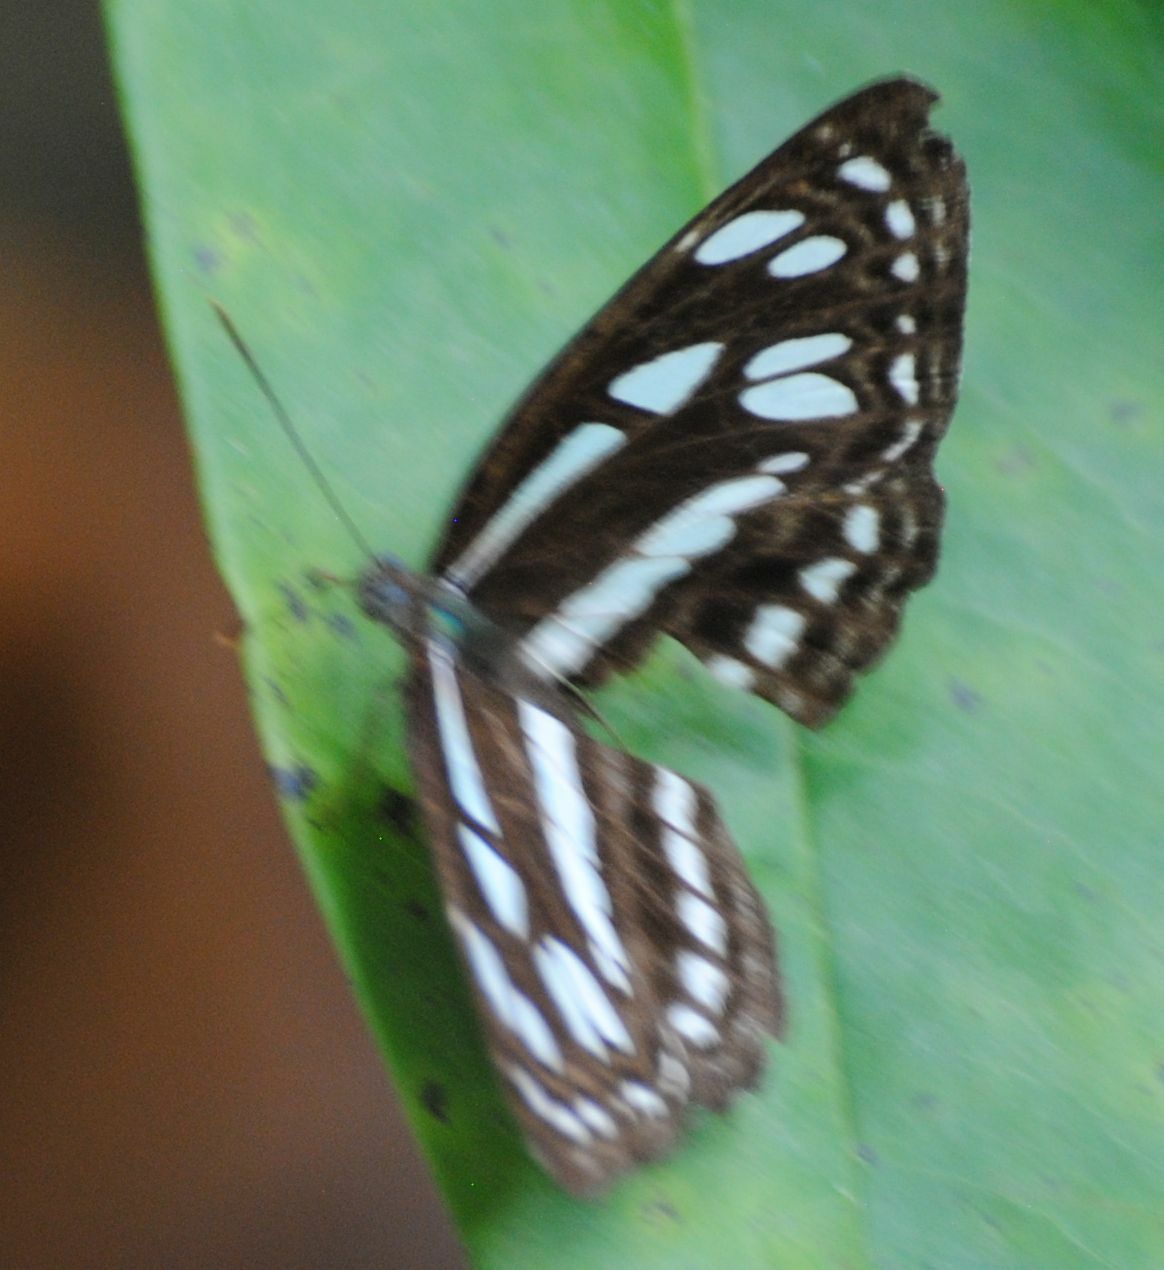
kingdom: Animalia
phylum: Arthropoda
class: Insecta
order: Lepidoptera
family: Nymphalidae
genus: Phaedyma
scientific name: Phaedyma columella
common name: Short banded sailer
